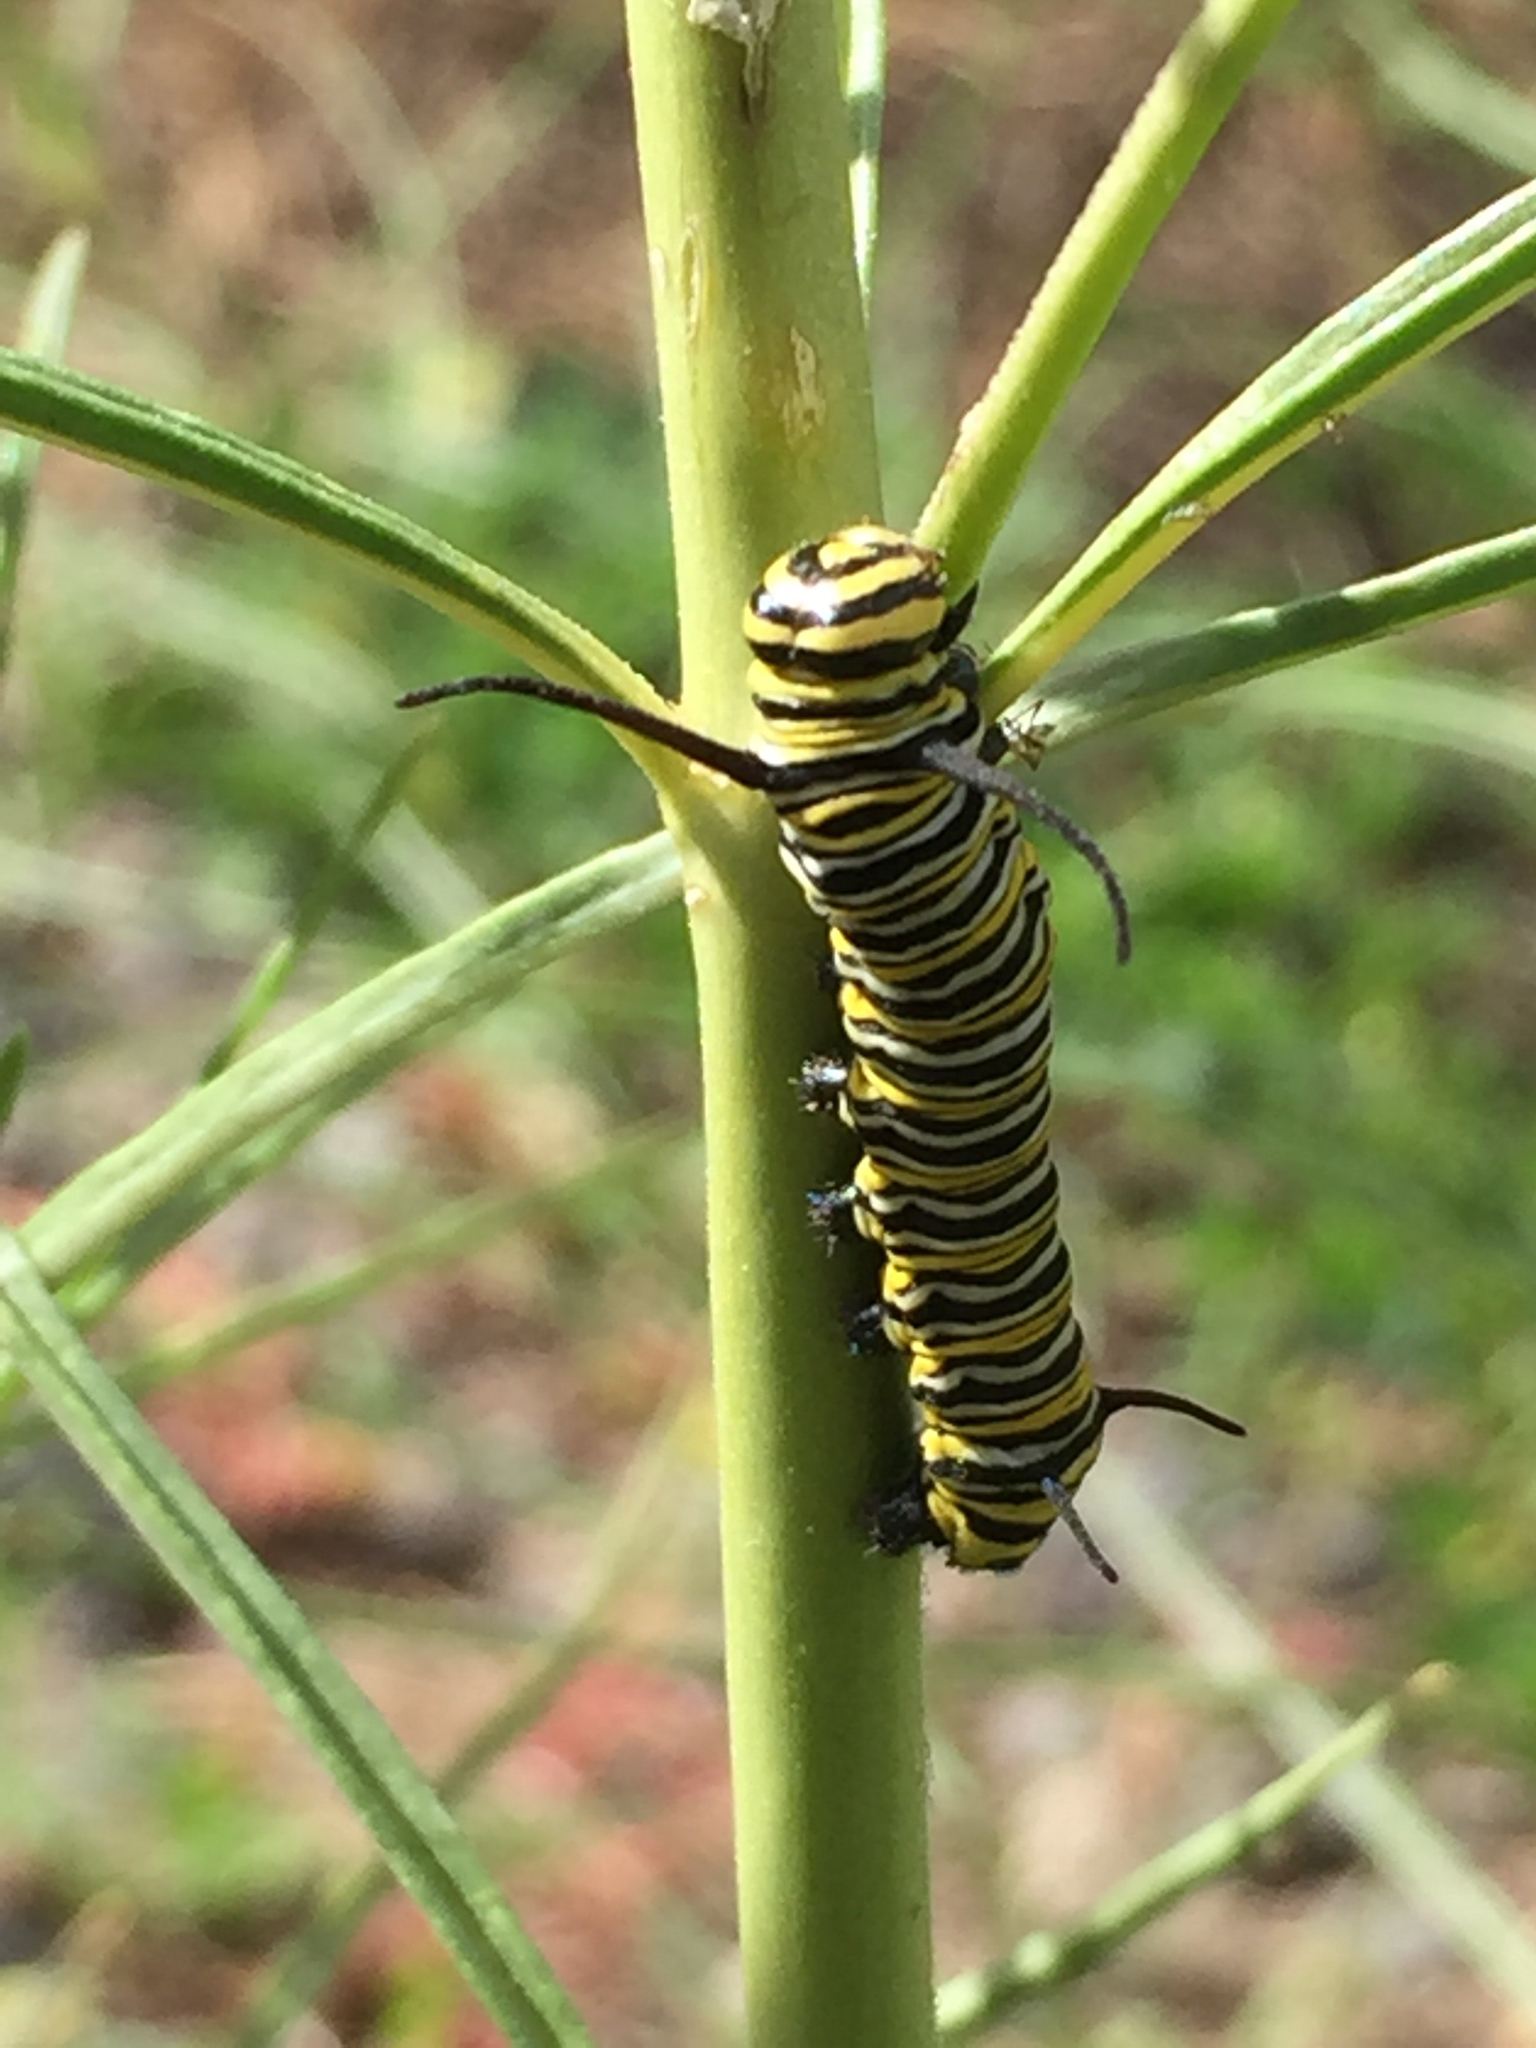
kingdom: Animalia
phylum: Arthropoda
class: Insecta
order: Lepidoptera
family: Nymphalidae
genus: Danaus
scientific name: Danaus plexippus
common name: Monarch
